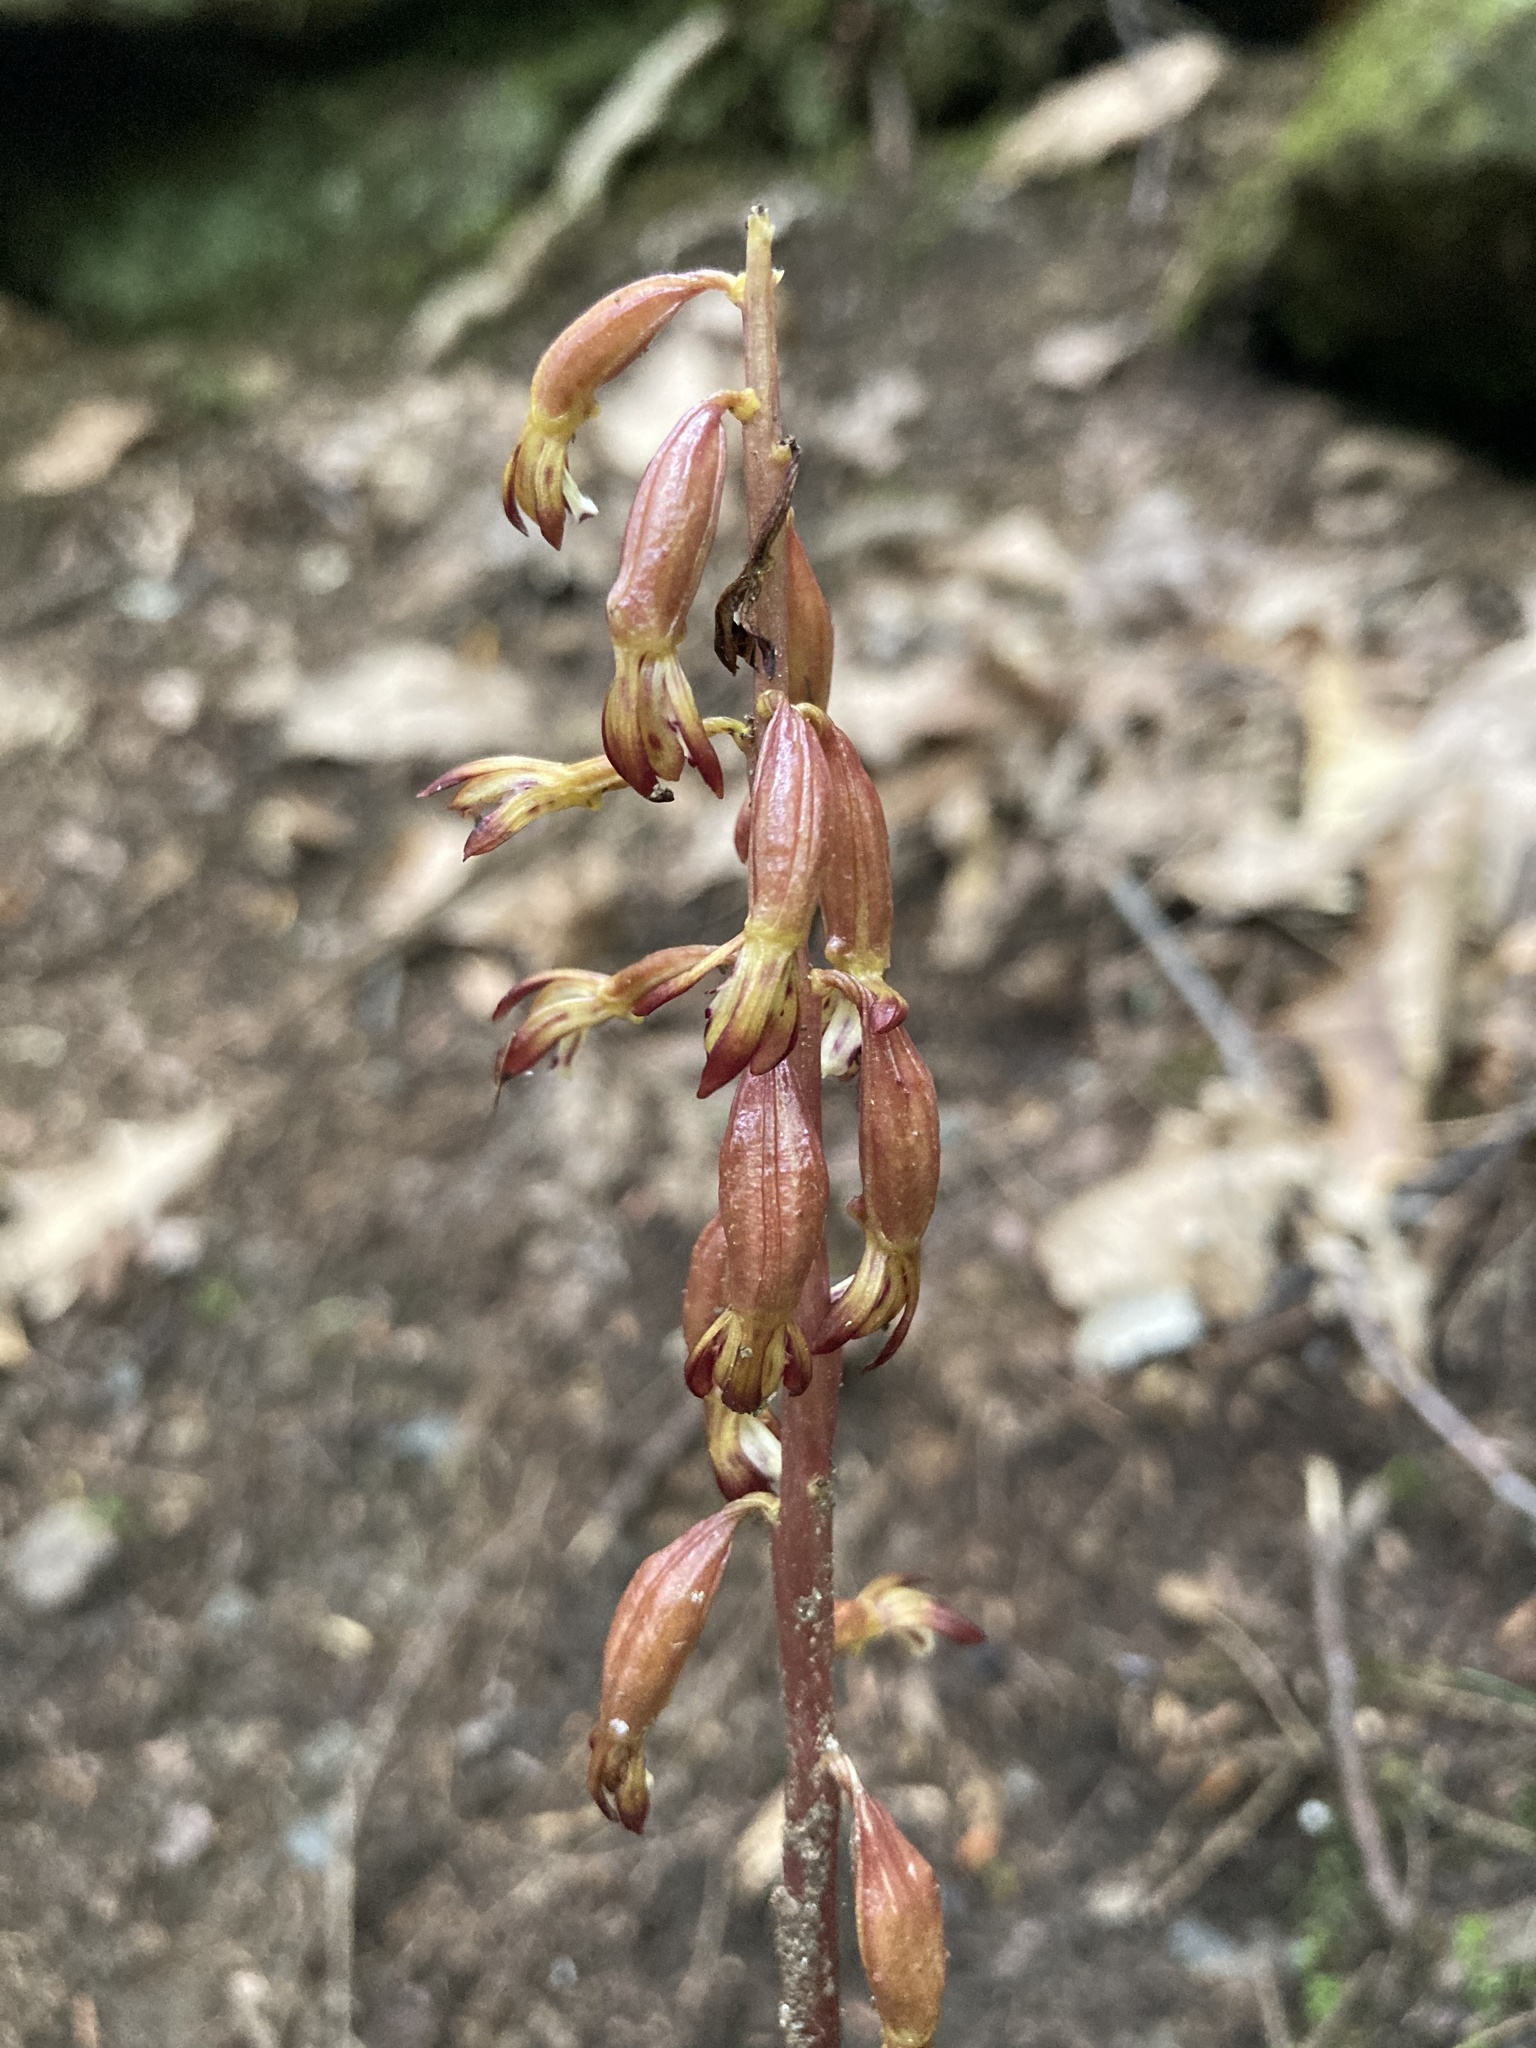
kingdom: Plantae
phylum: Tracheophyta
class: Liliopsida
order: Asparagales
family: Orchidaceae
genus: Corallorhiza
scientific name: Corallorhiza maculata
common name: Spotted coralroot
